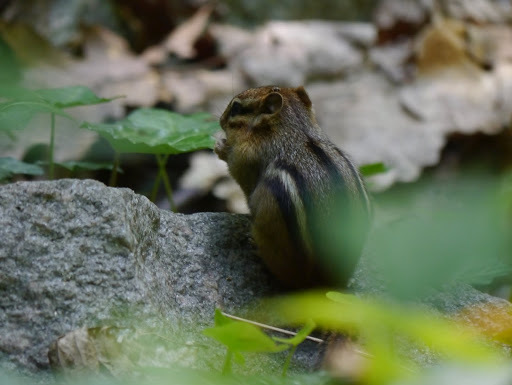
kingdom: Animalia
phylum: Chordata
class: Mammalia
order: Rodentia
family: Sciuridae
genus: Tamias
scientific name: Tamias striatus
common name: Eastern chipmunk
